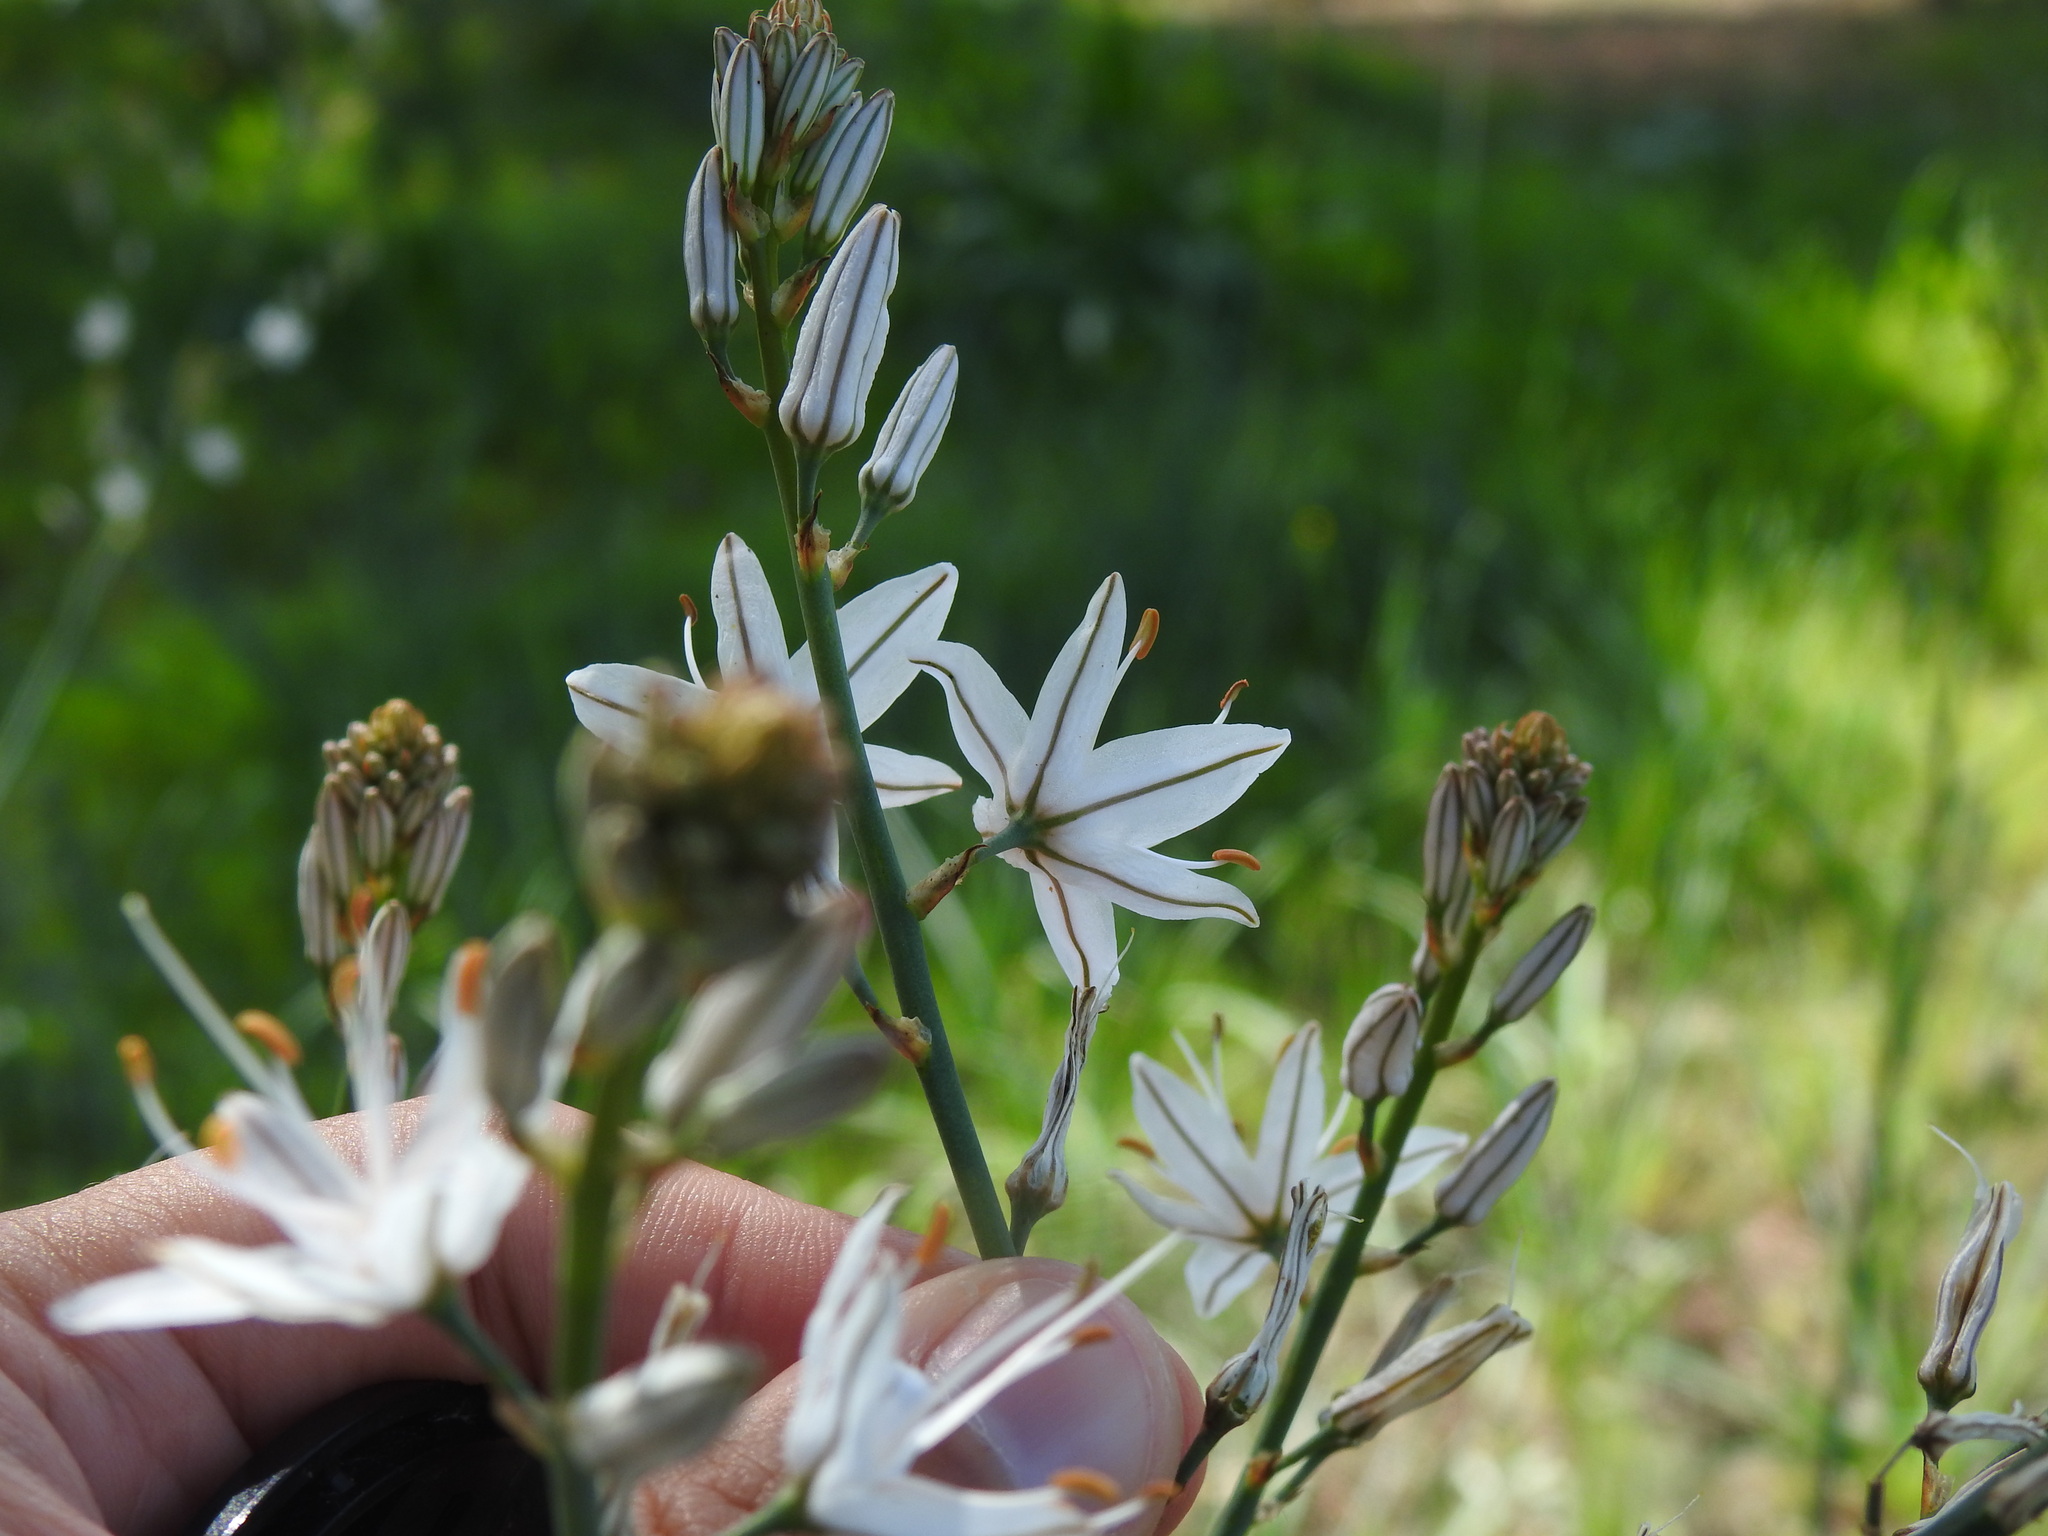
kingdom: Plantae
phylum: Tracheophyta
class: Liliopsida
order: Asparagales
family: Asphodelaceae
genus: Asphodelus
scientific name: Asphodelus serotinus
